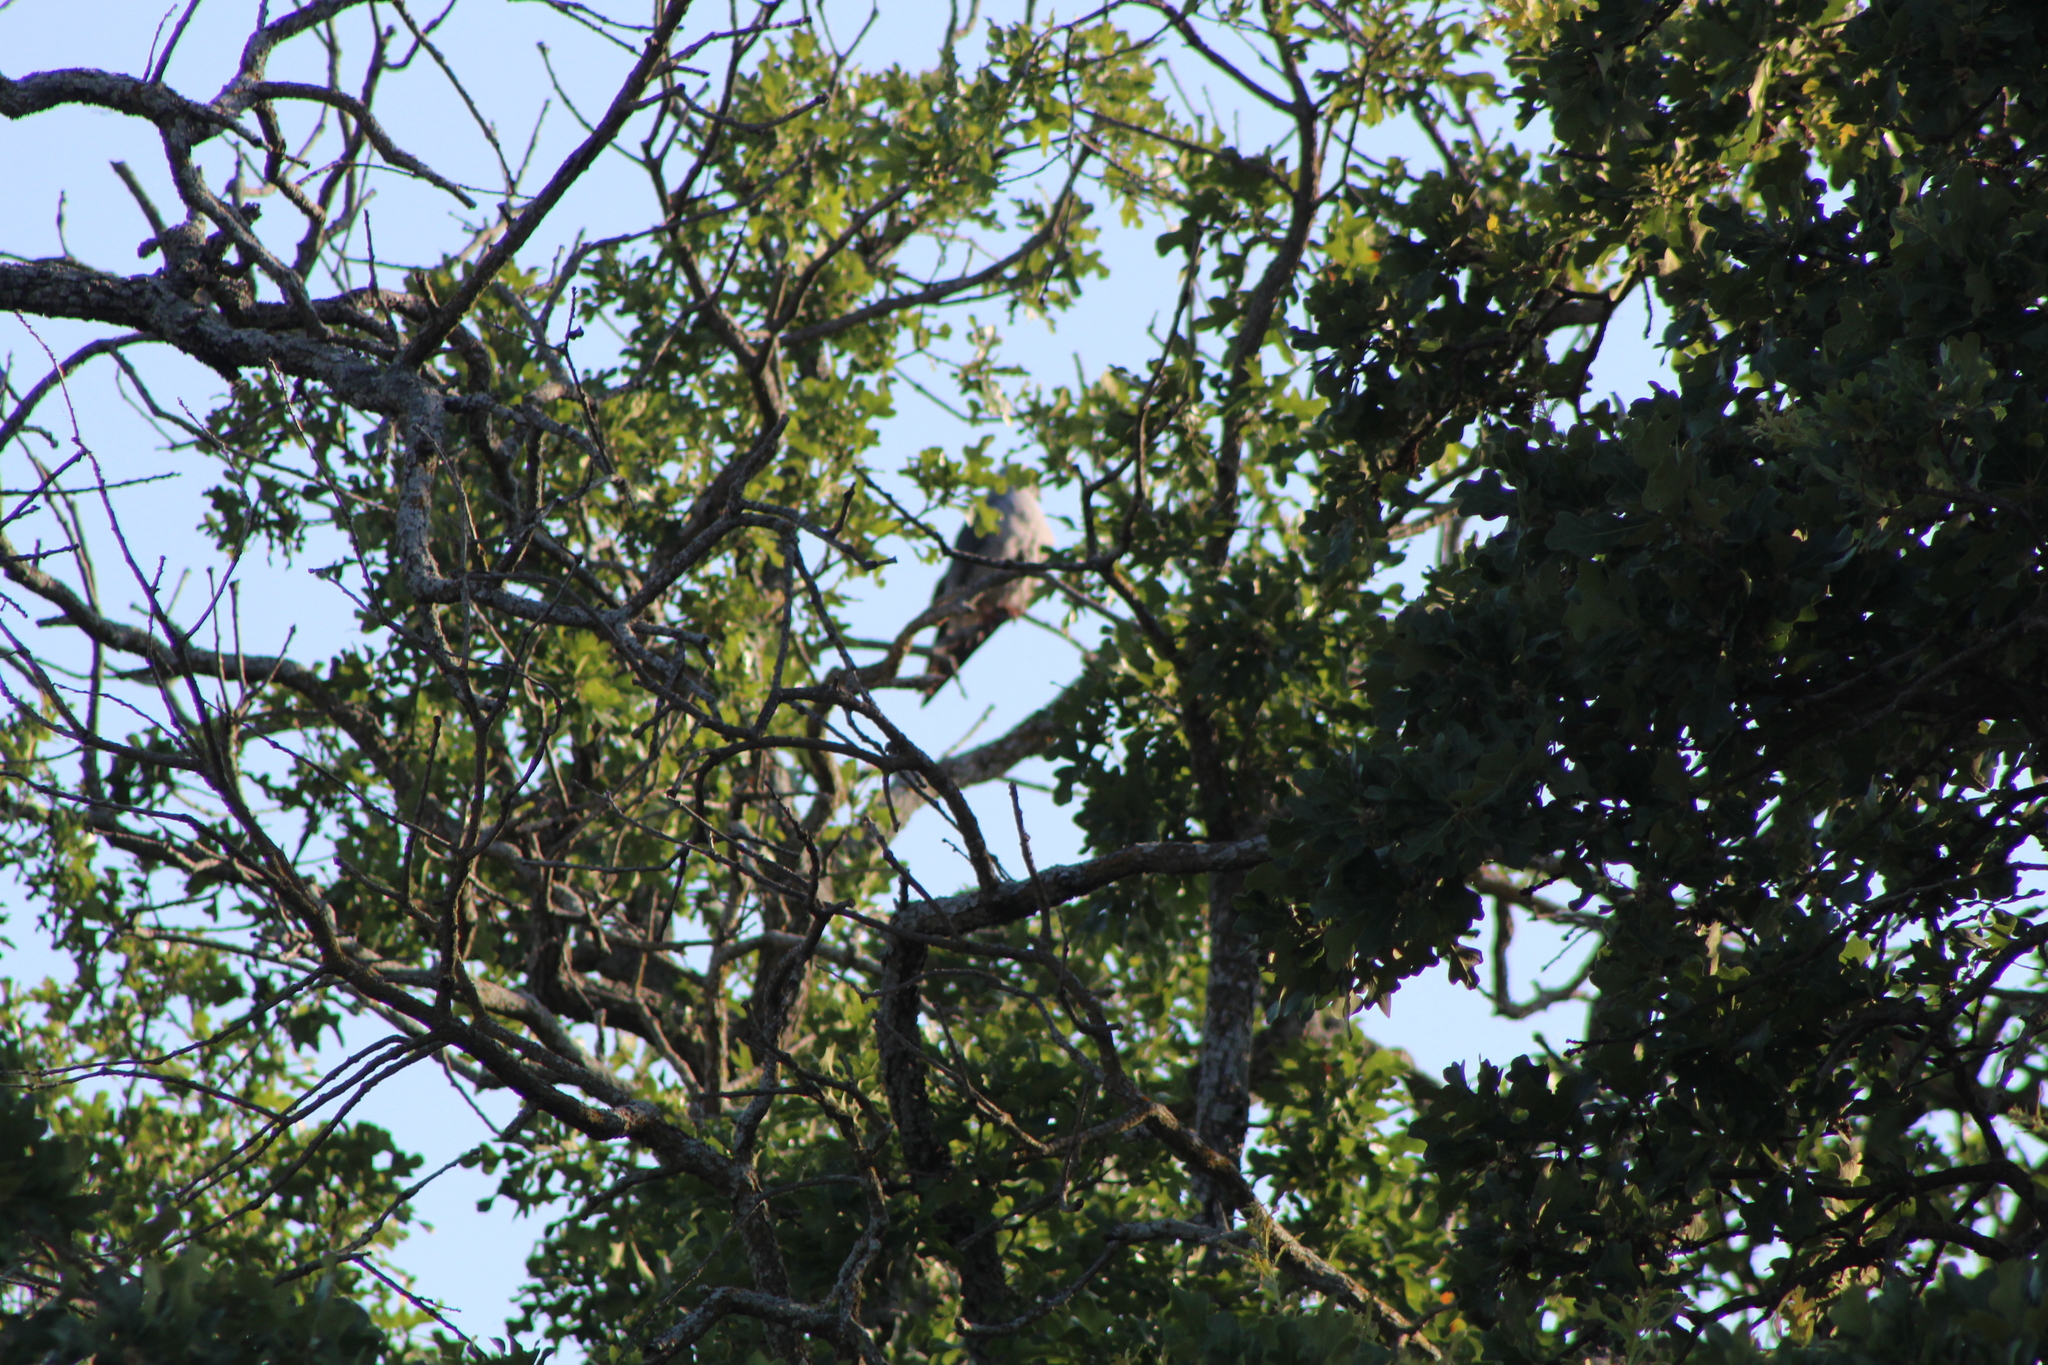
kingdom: Animalia
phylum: Chordata
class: Aves
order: Accipitriformes
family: Accipitridae
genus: Ictinia
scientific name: Ictinia mississippiensis
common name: Mississippi kite
